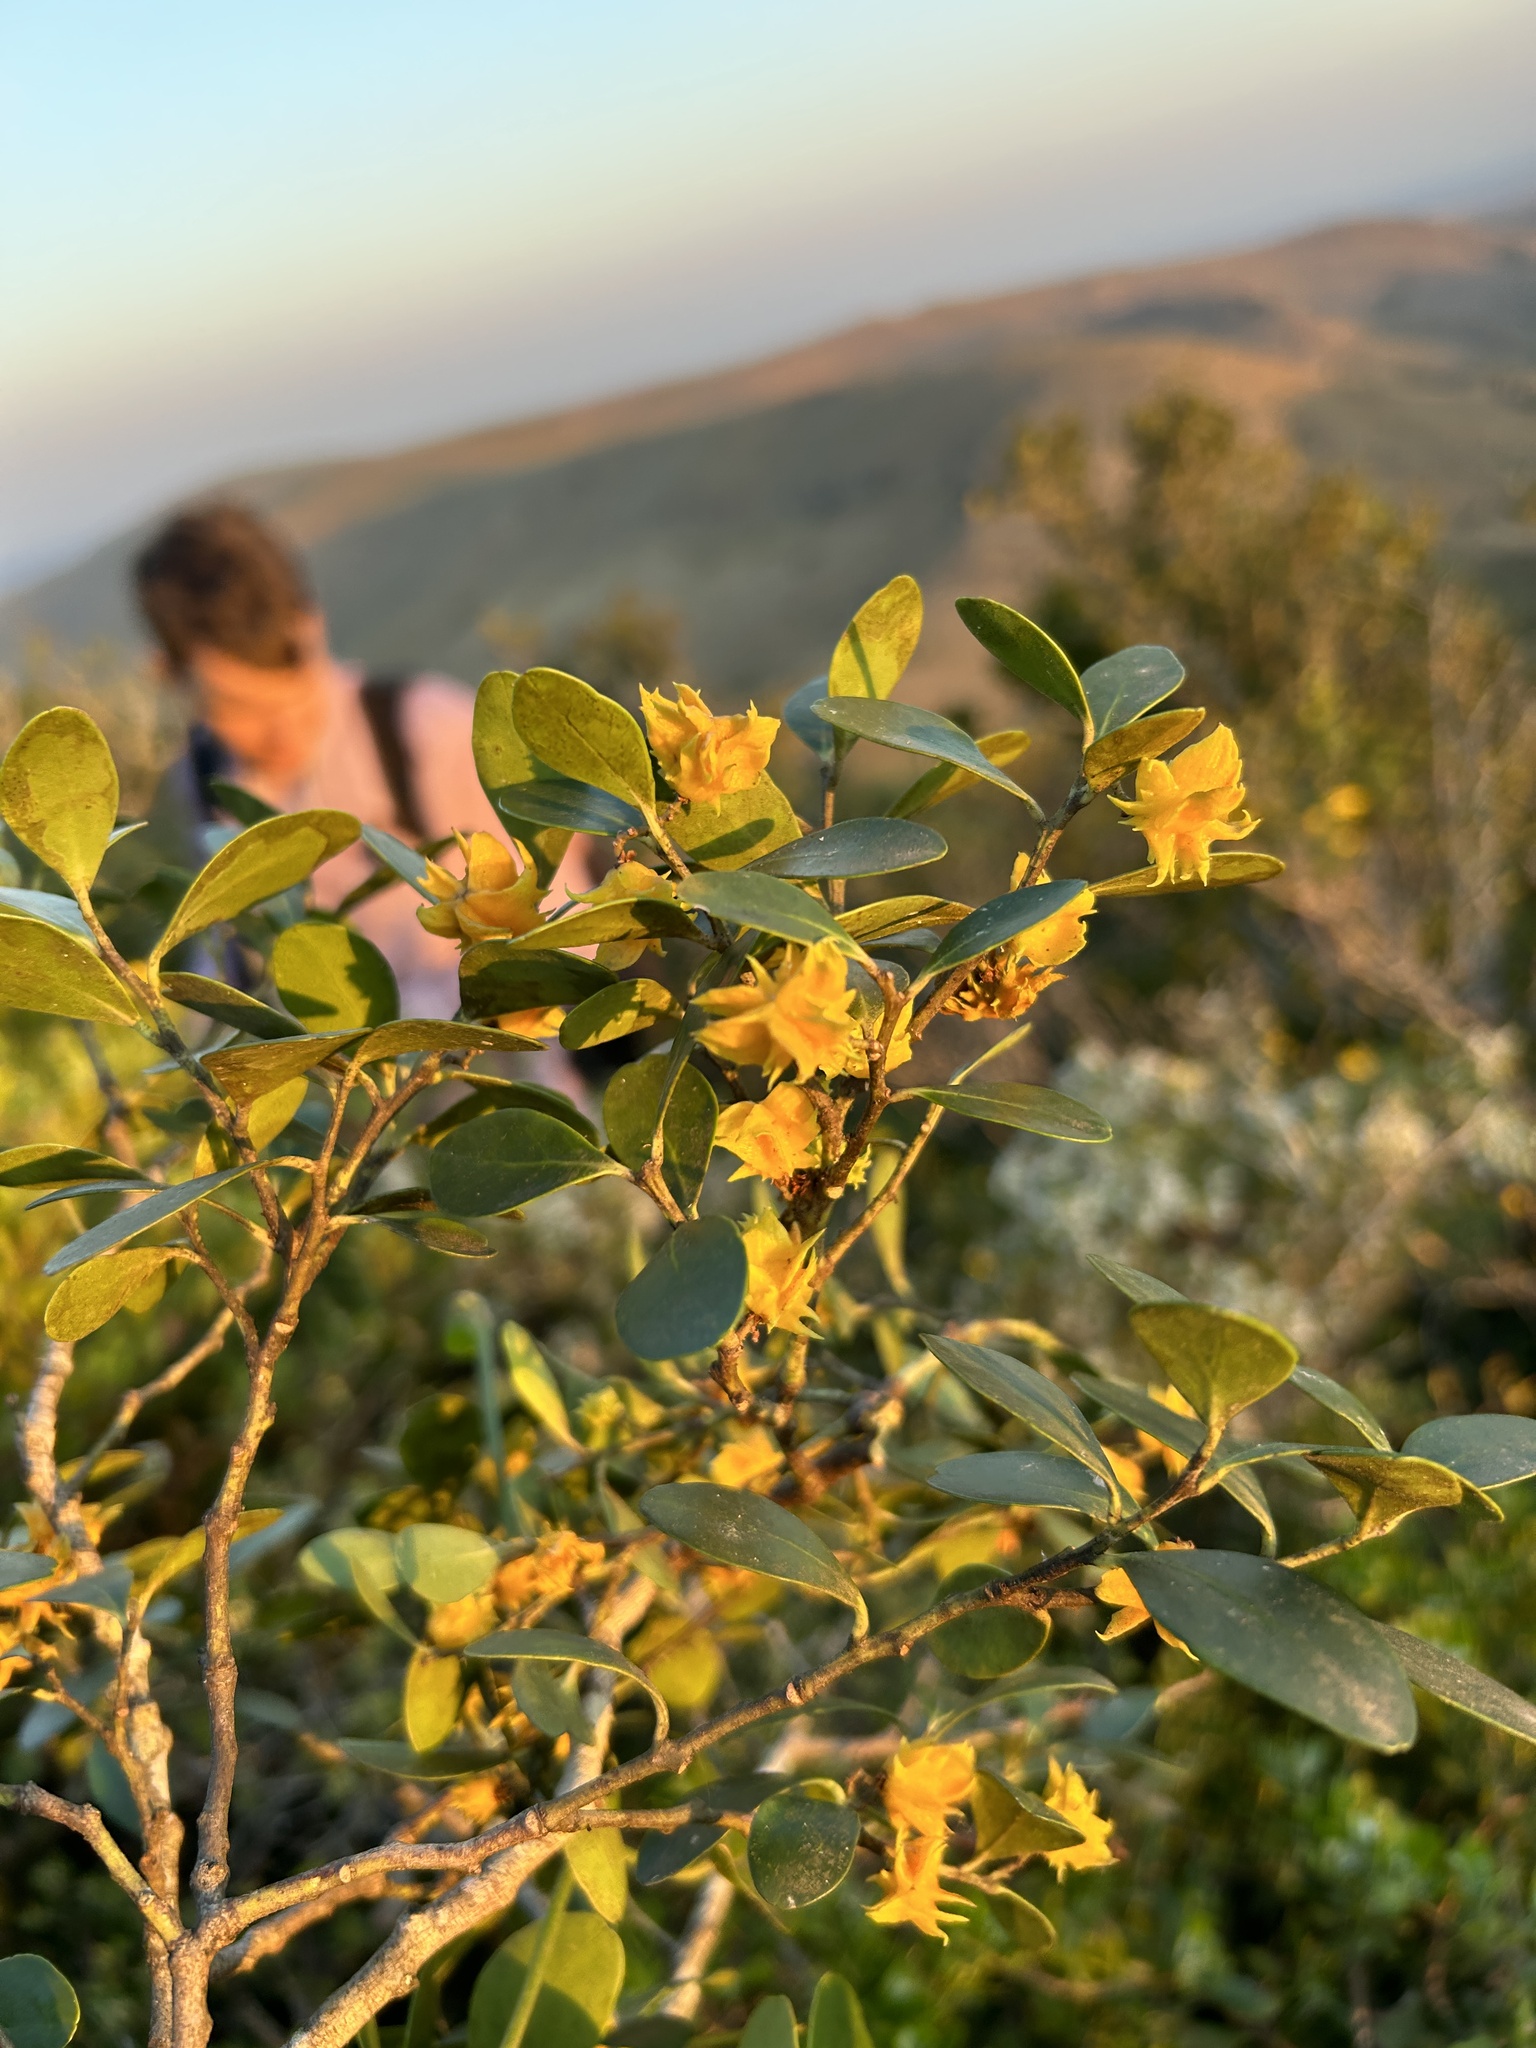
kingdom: Plantae
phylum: Tracheophyta
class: Magnoliopsida
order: Celastrales
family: Celastraceae
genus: Pterocelastrus
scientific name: Pterocelastrus tricuspidatus
